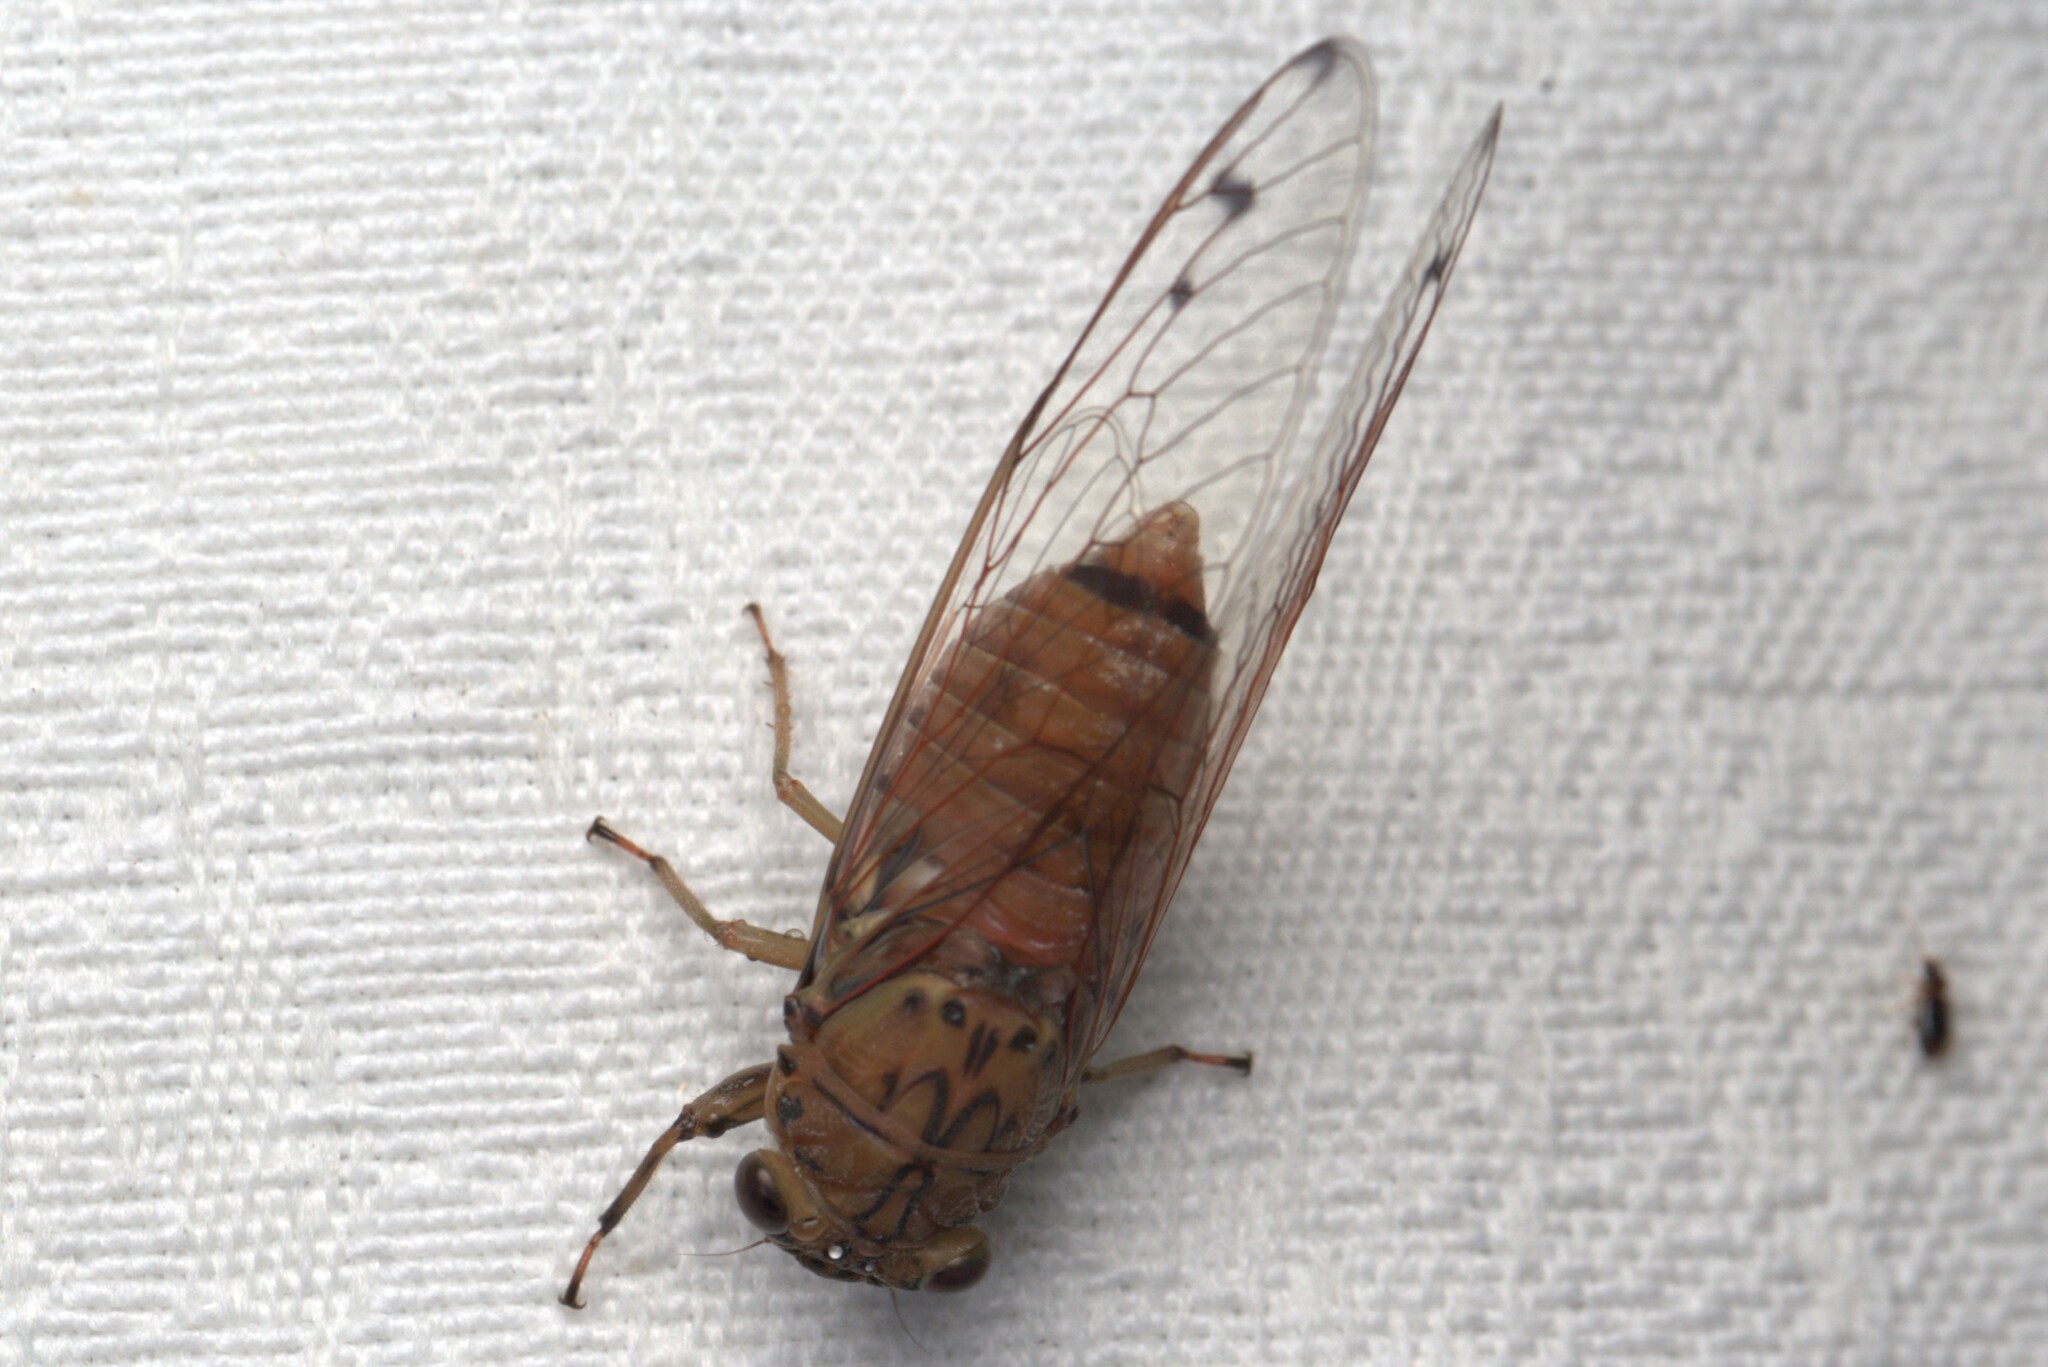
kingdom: Animalia
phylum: Arthropoda
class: Insecta
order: Hemiptera
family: Cicadidae
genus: Tamasa
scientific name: Tamasa tristigma
